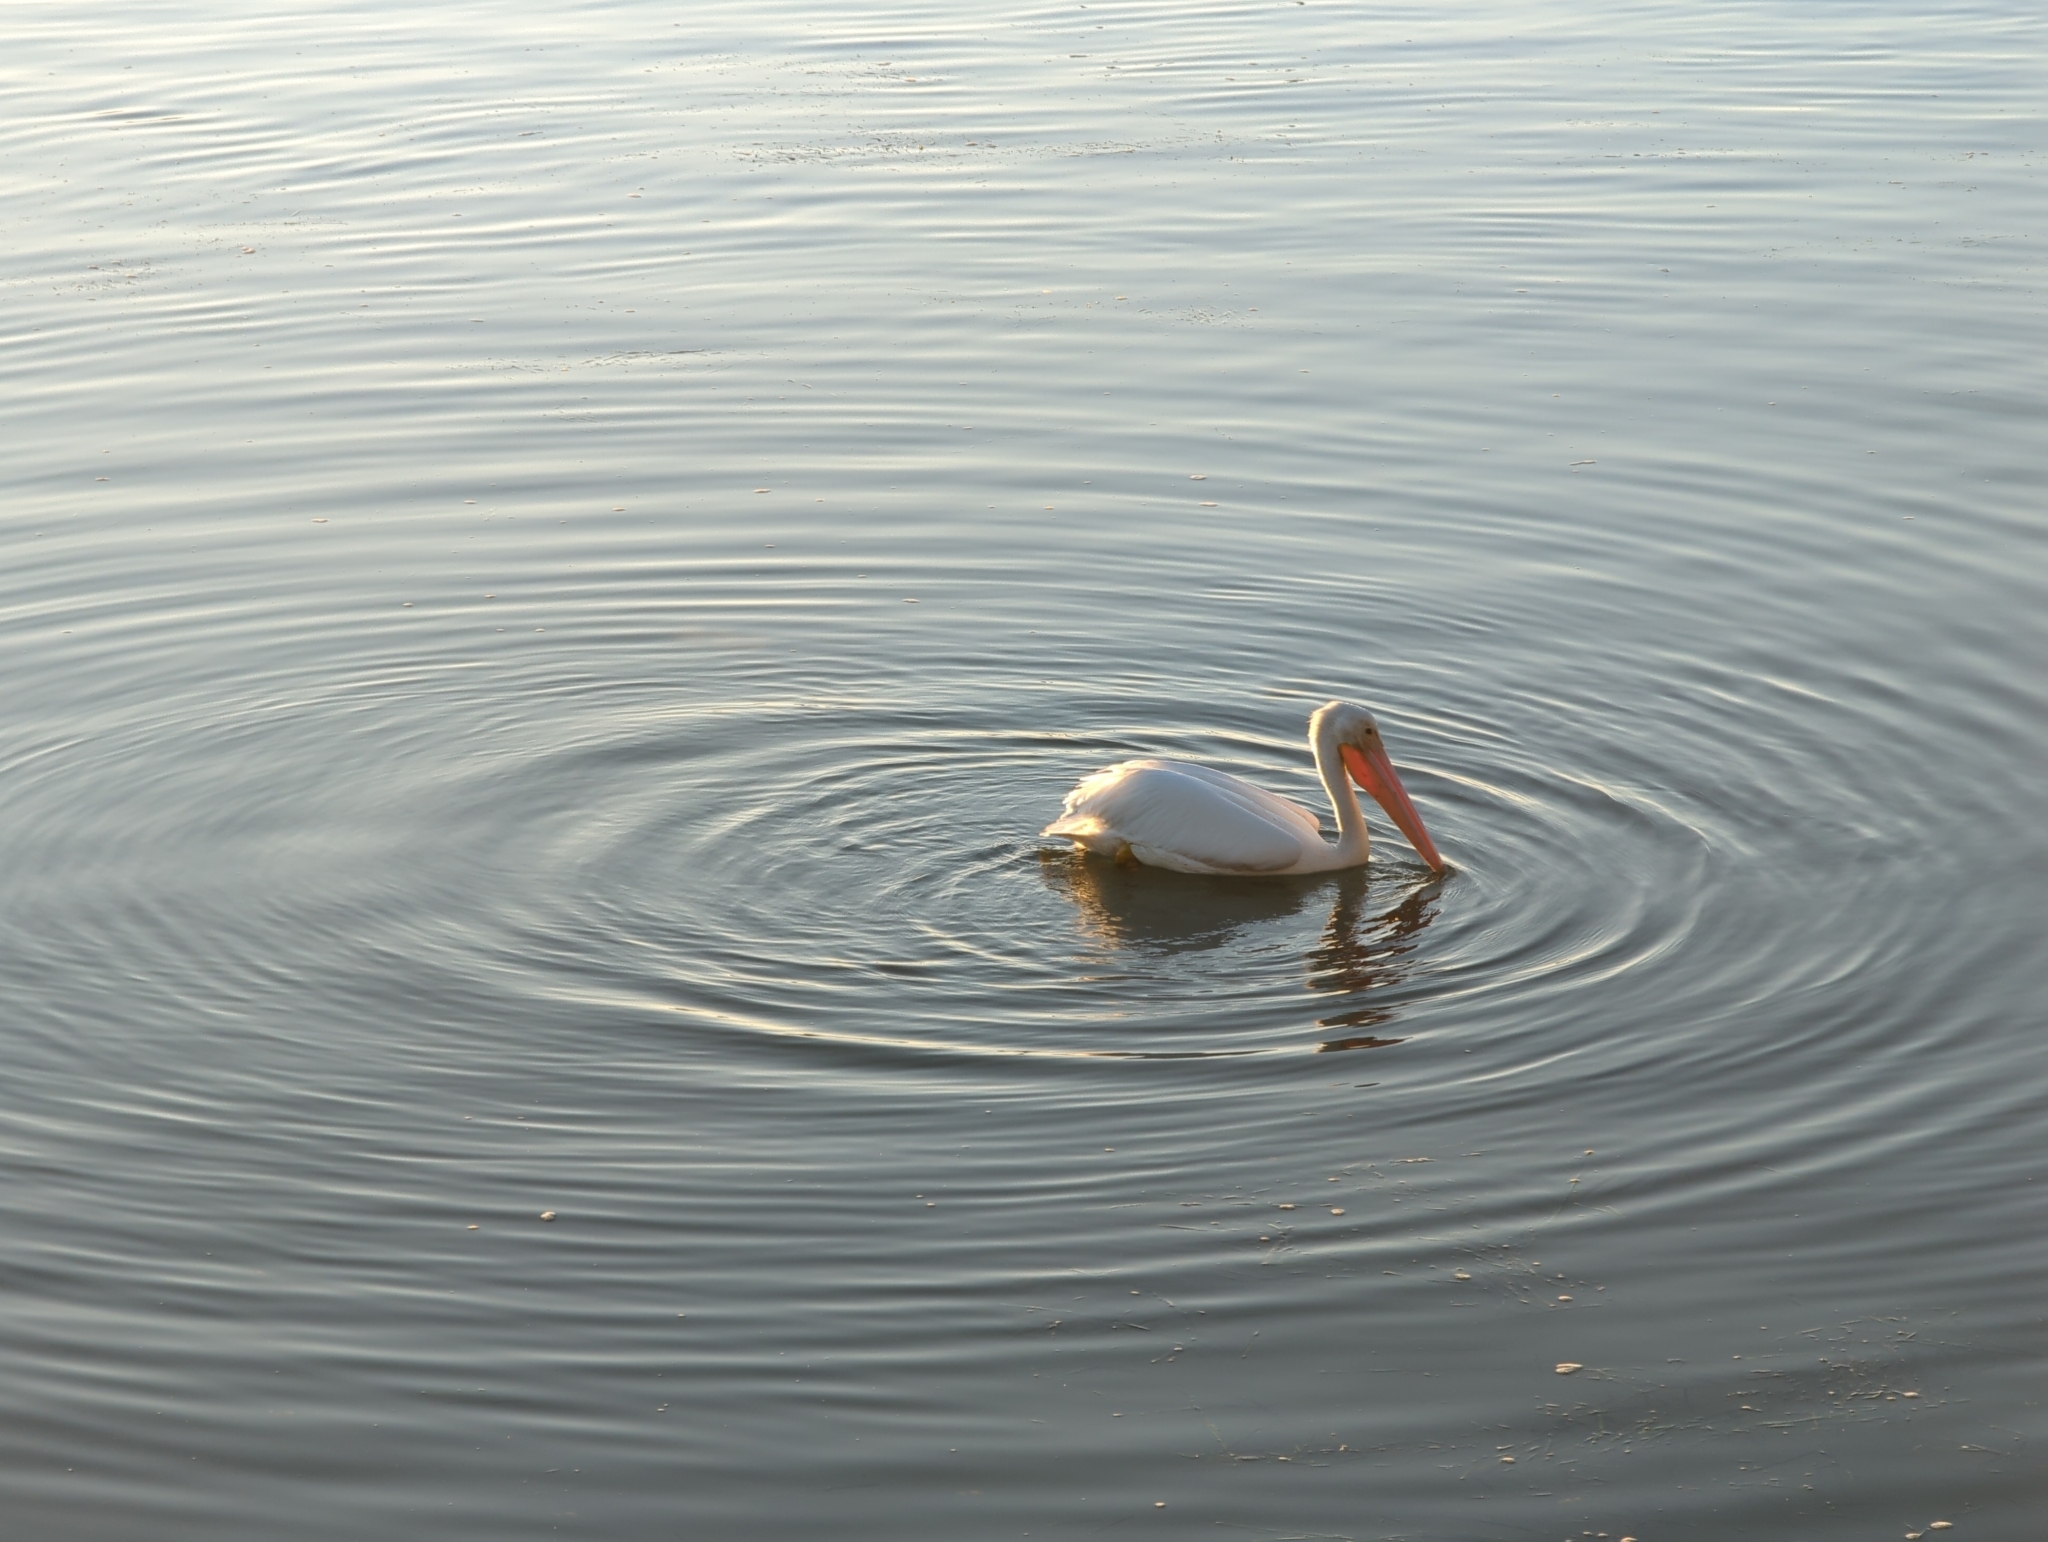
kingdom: Animalia
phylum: Chordata
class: Aves
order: Pelecaniformes
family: Pelecanidae
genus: Pelecanus
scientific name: Pelecanus erythrorhynchos
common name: American white pelican
